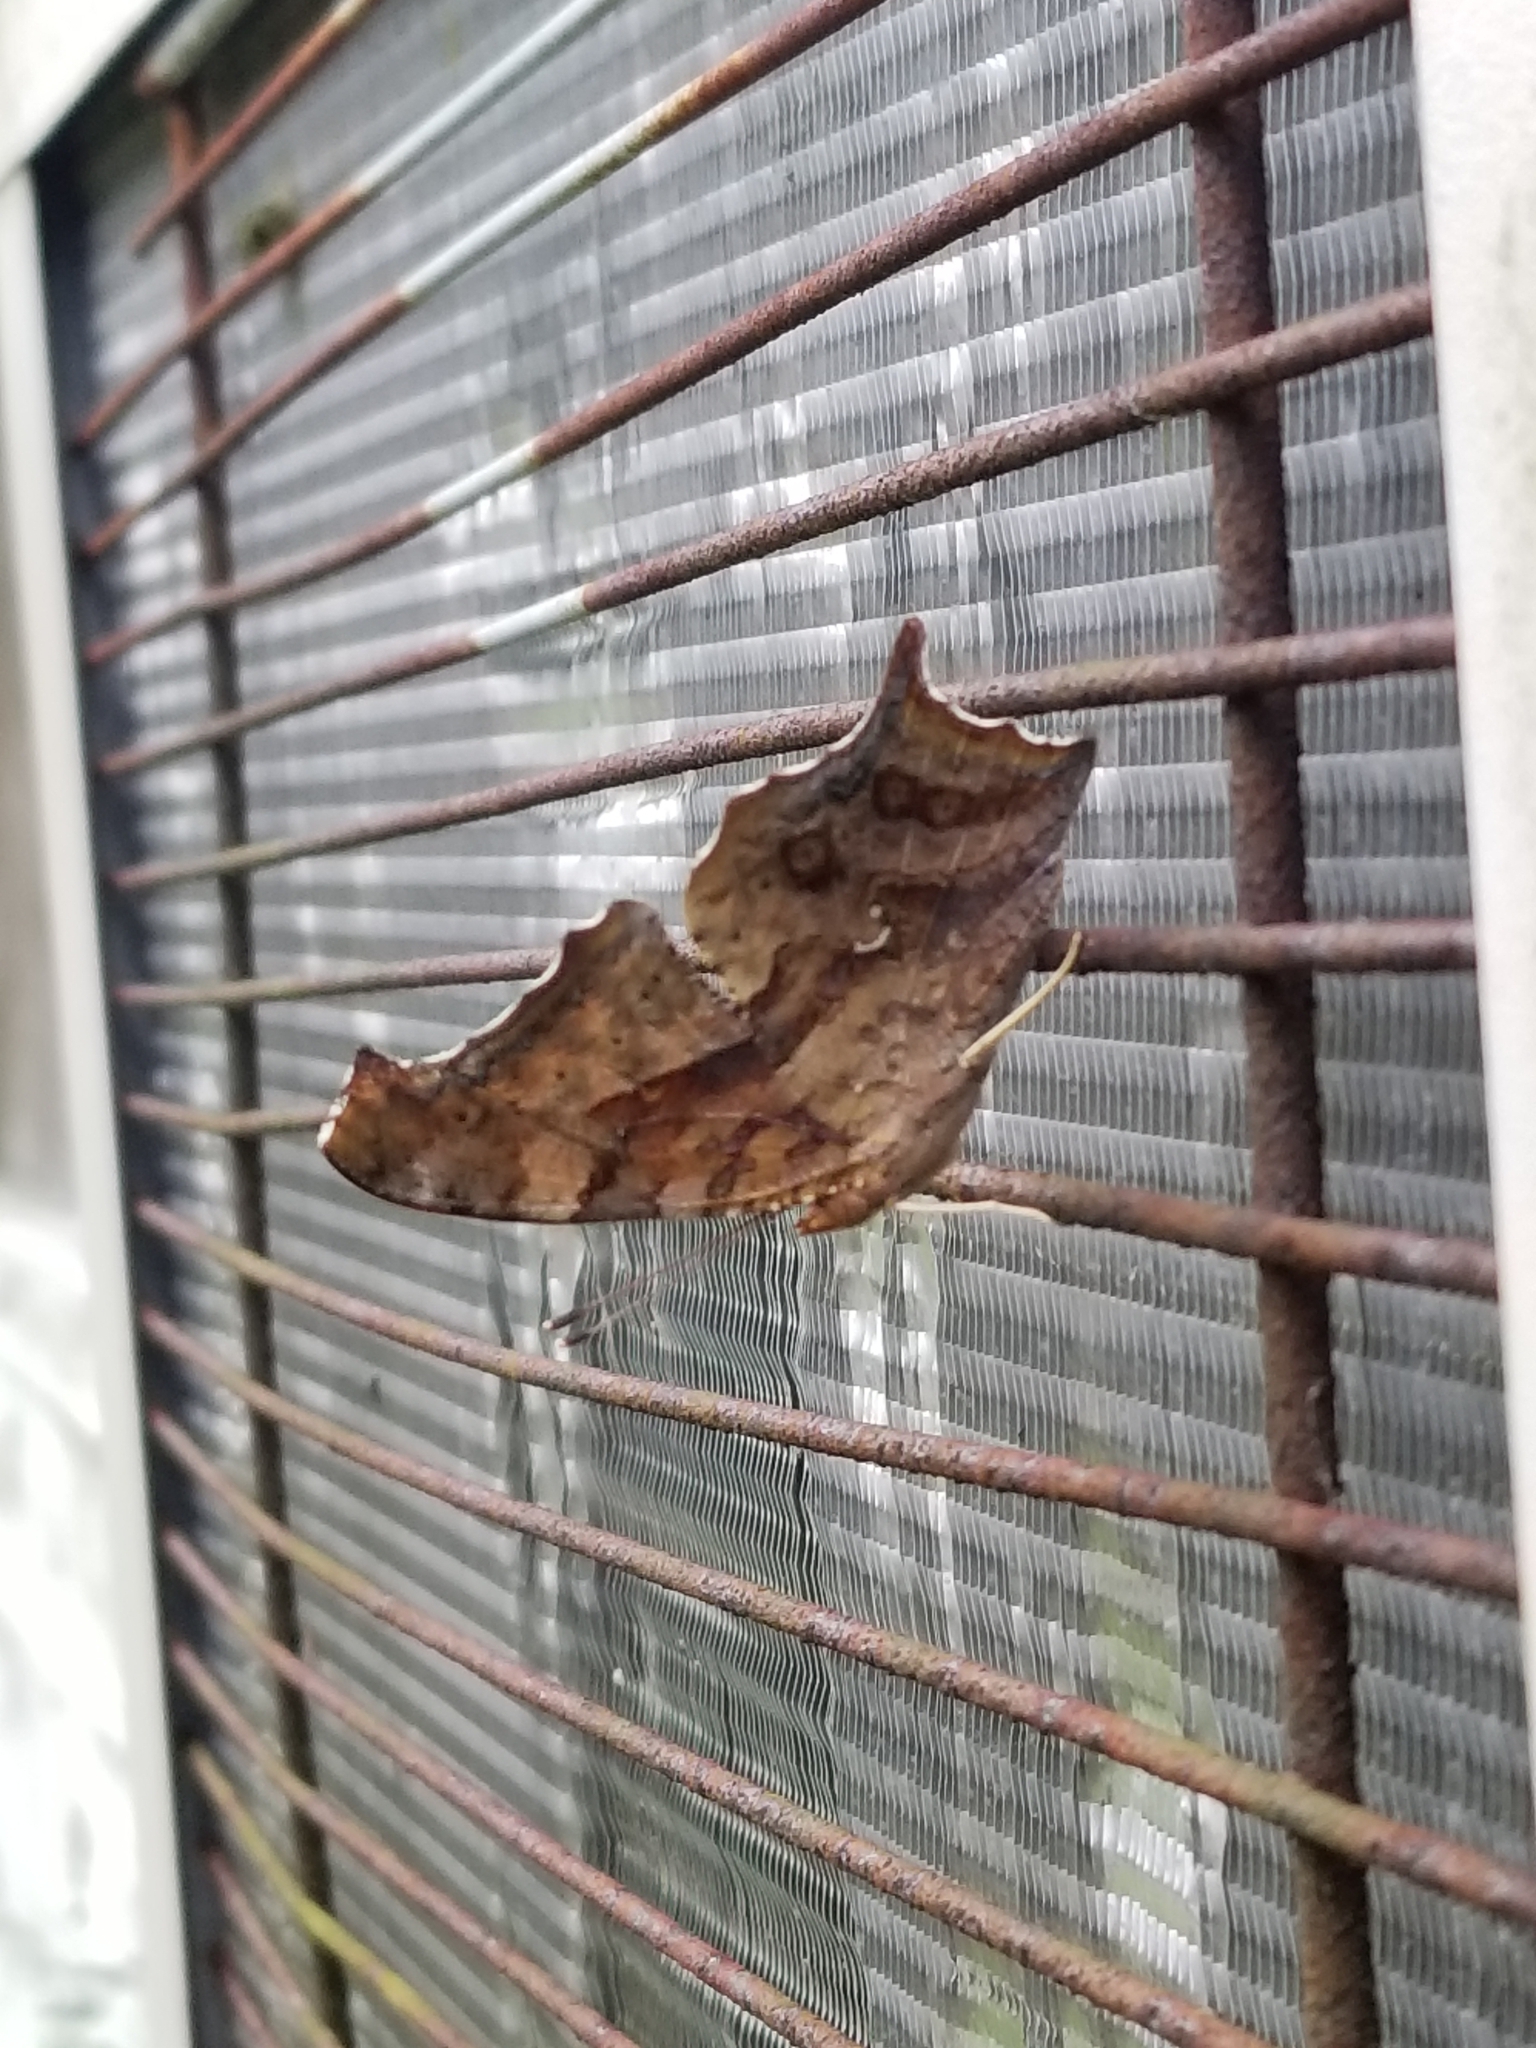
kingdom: Animalia
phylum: Arthropoda
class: Insecta
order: Lepidoptera
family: Nymphalidae
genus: Polygonia
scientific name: Polygonia interrogationis
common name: Question mark
